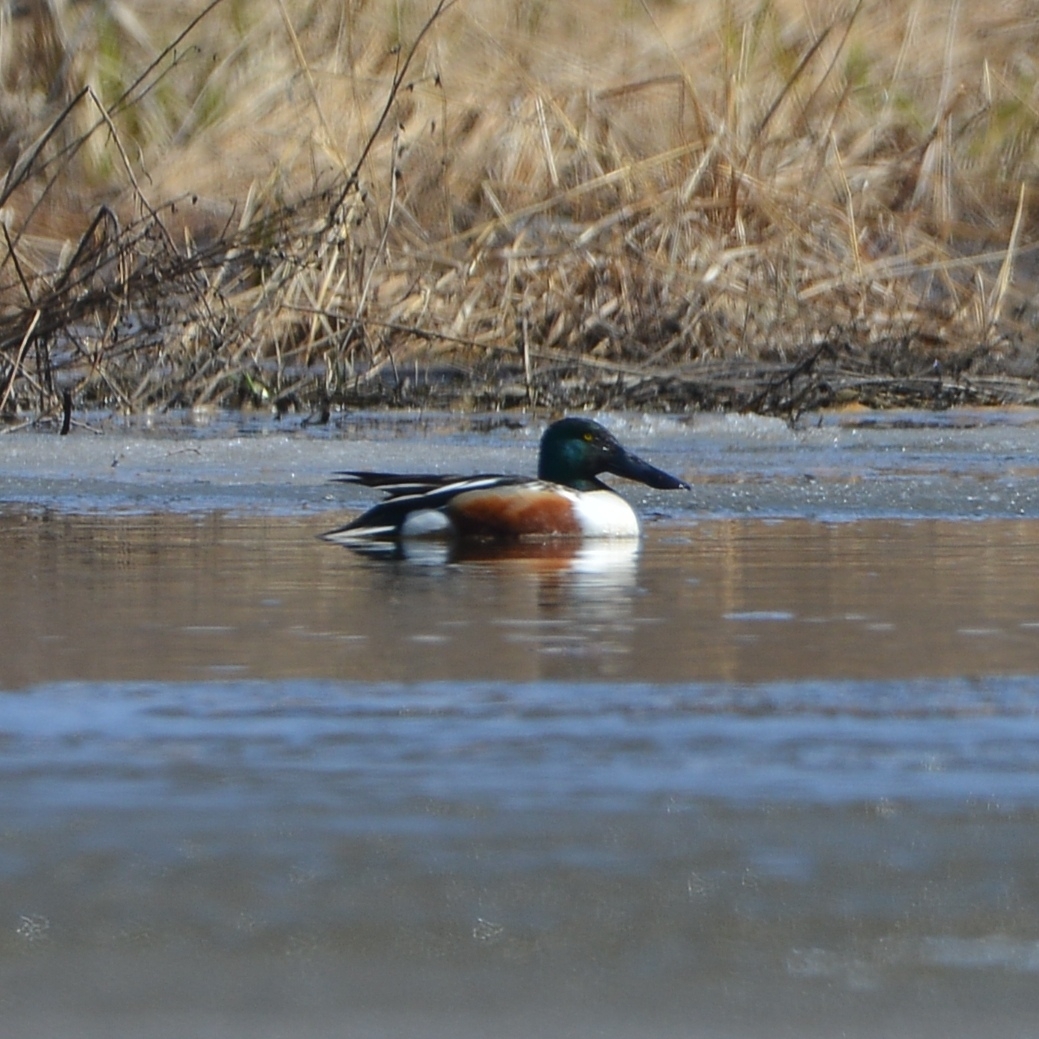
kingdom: Animalia
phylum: Chordata
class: Aves
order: Anseriformes
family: Anatidae
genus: Spatula
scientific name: Spatula clypeata
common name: Northern shoveler
